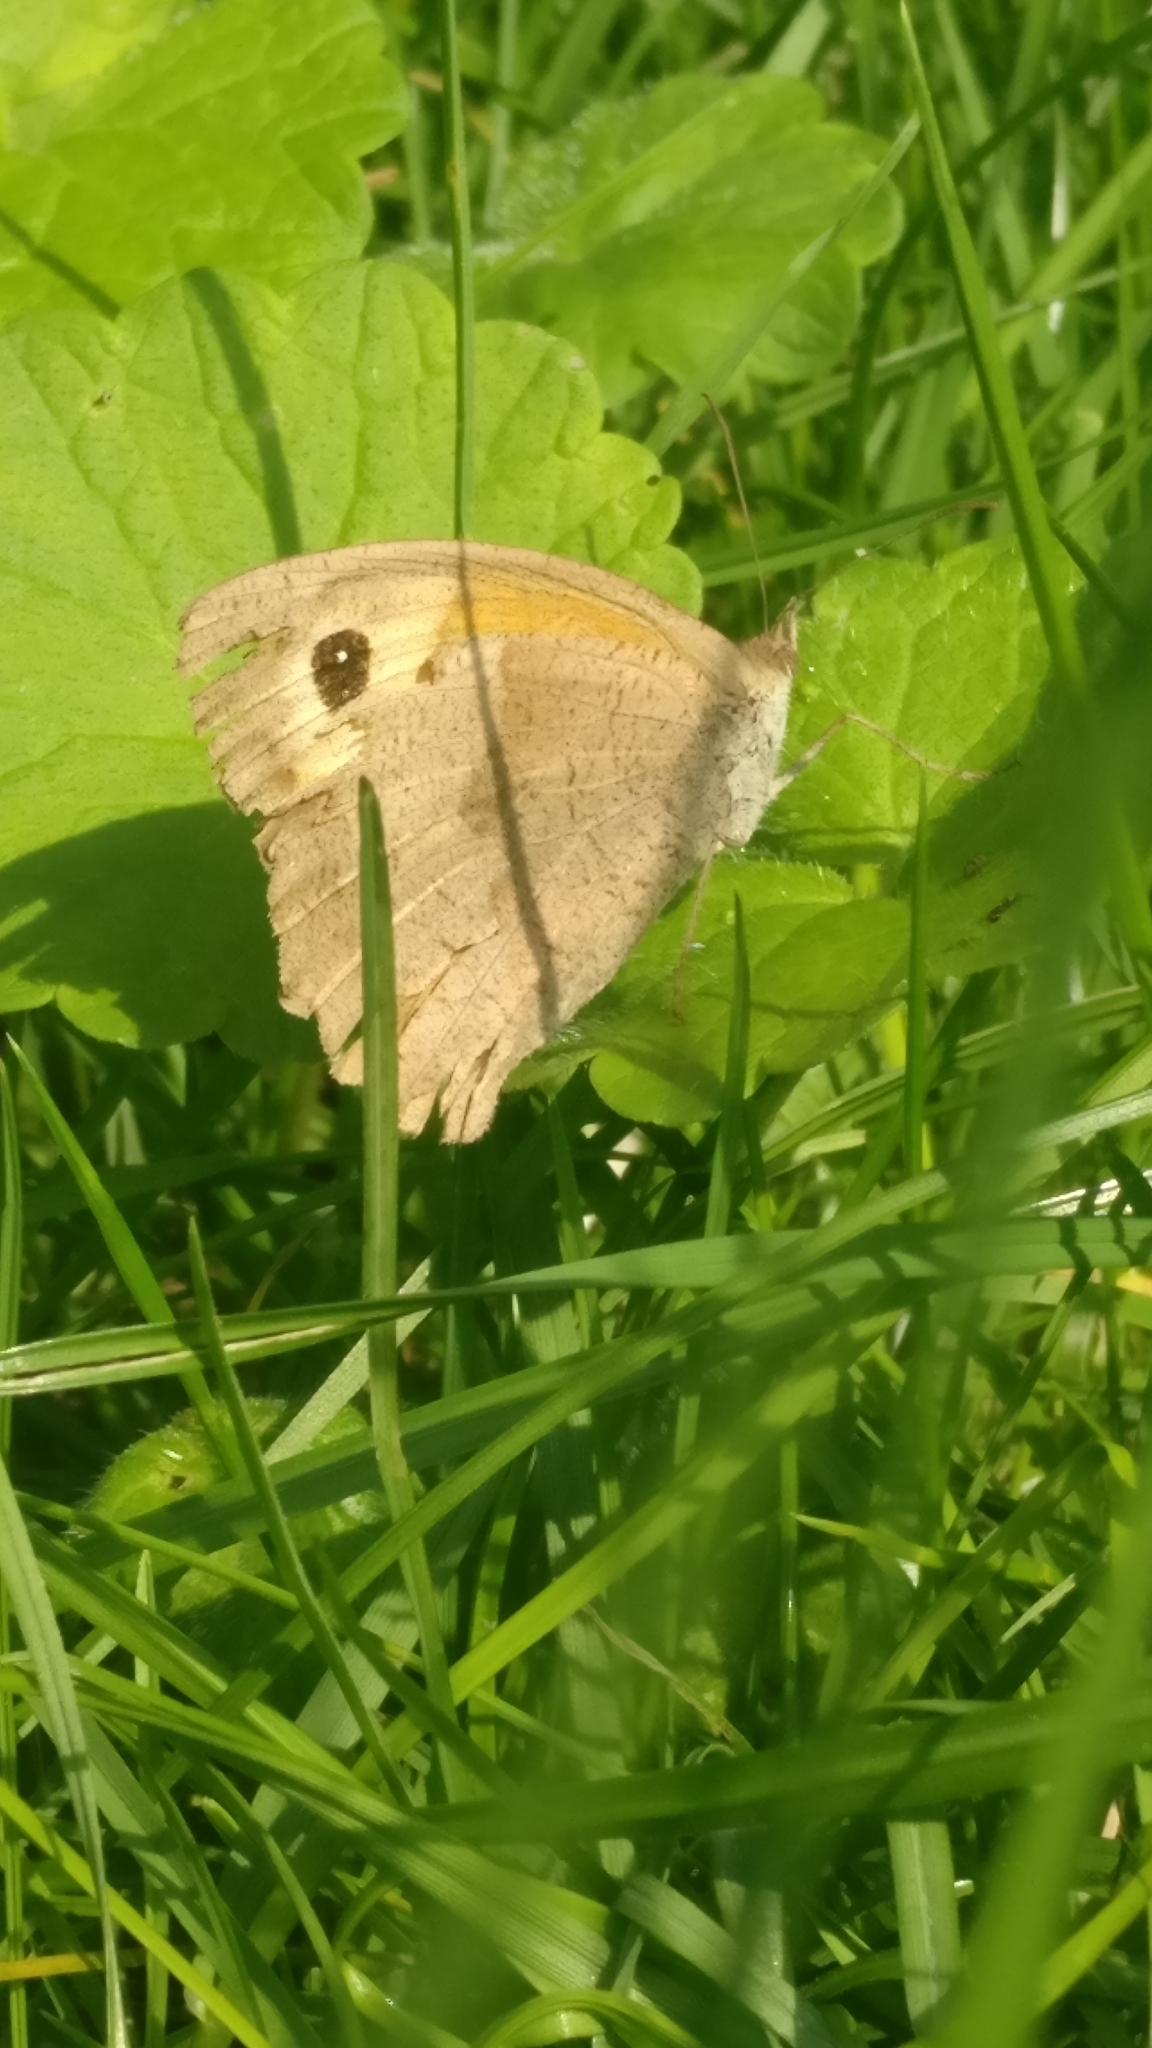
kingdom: Animalia
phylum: Arthropoda
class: Insecta
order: Lepidoptera
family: Nymphalidae
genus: Maniola
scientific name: Maniola jurtina
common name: Meadow brown
